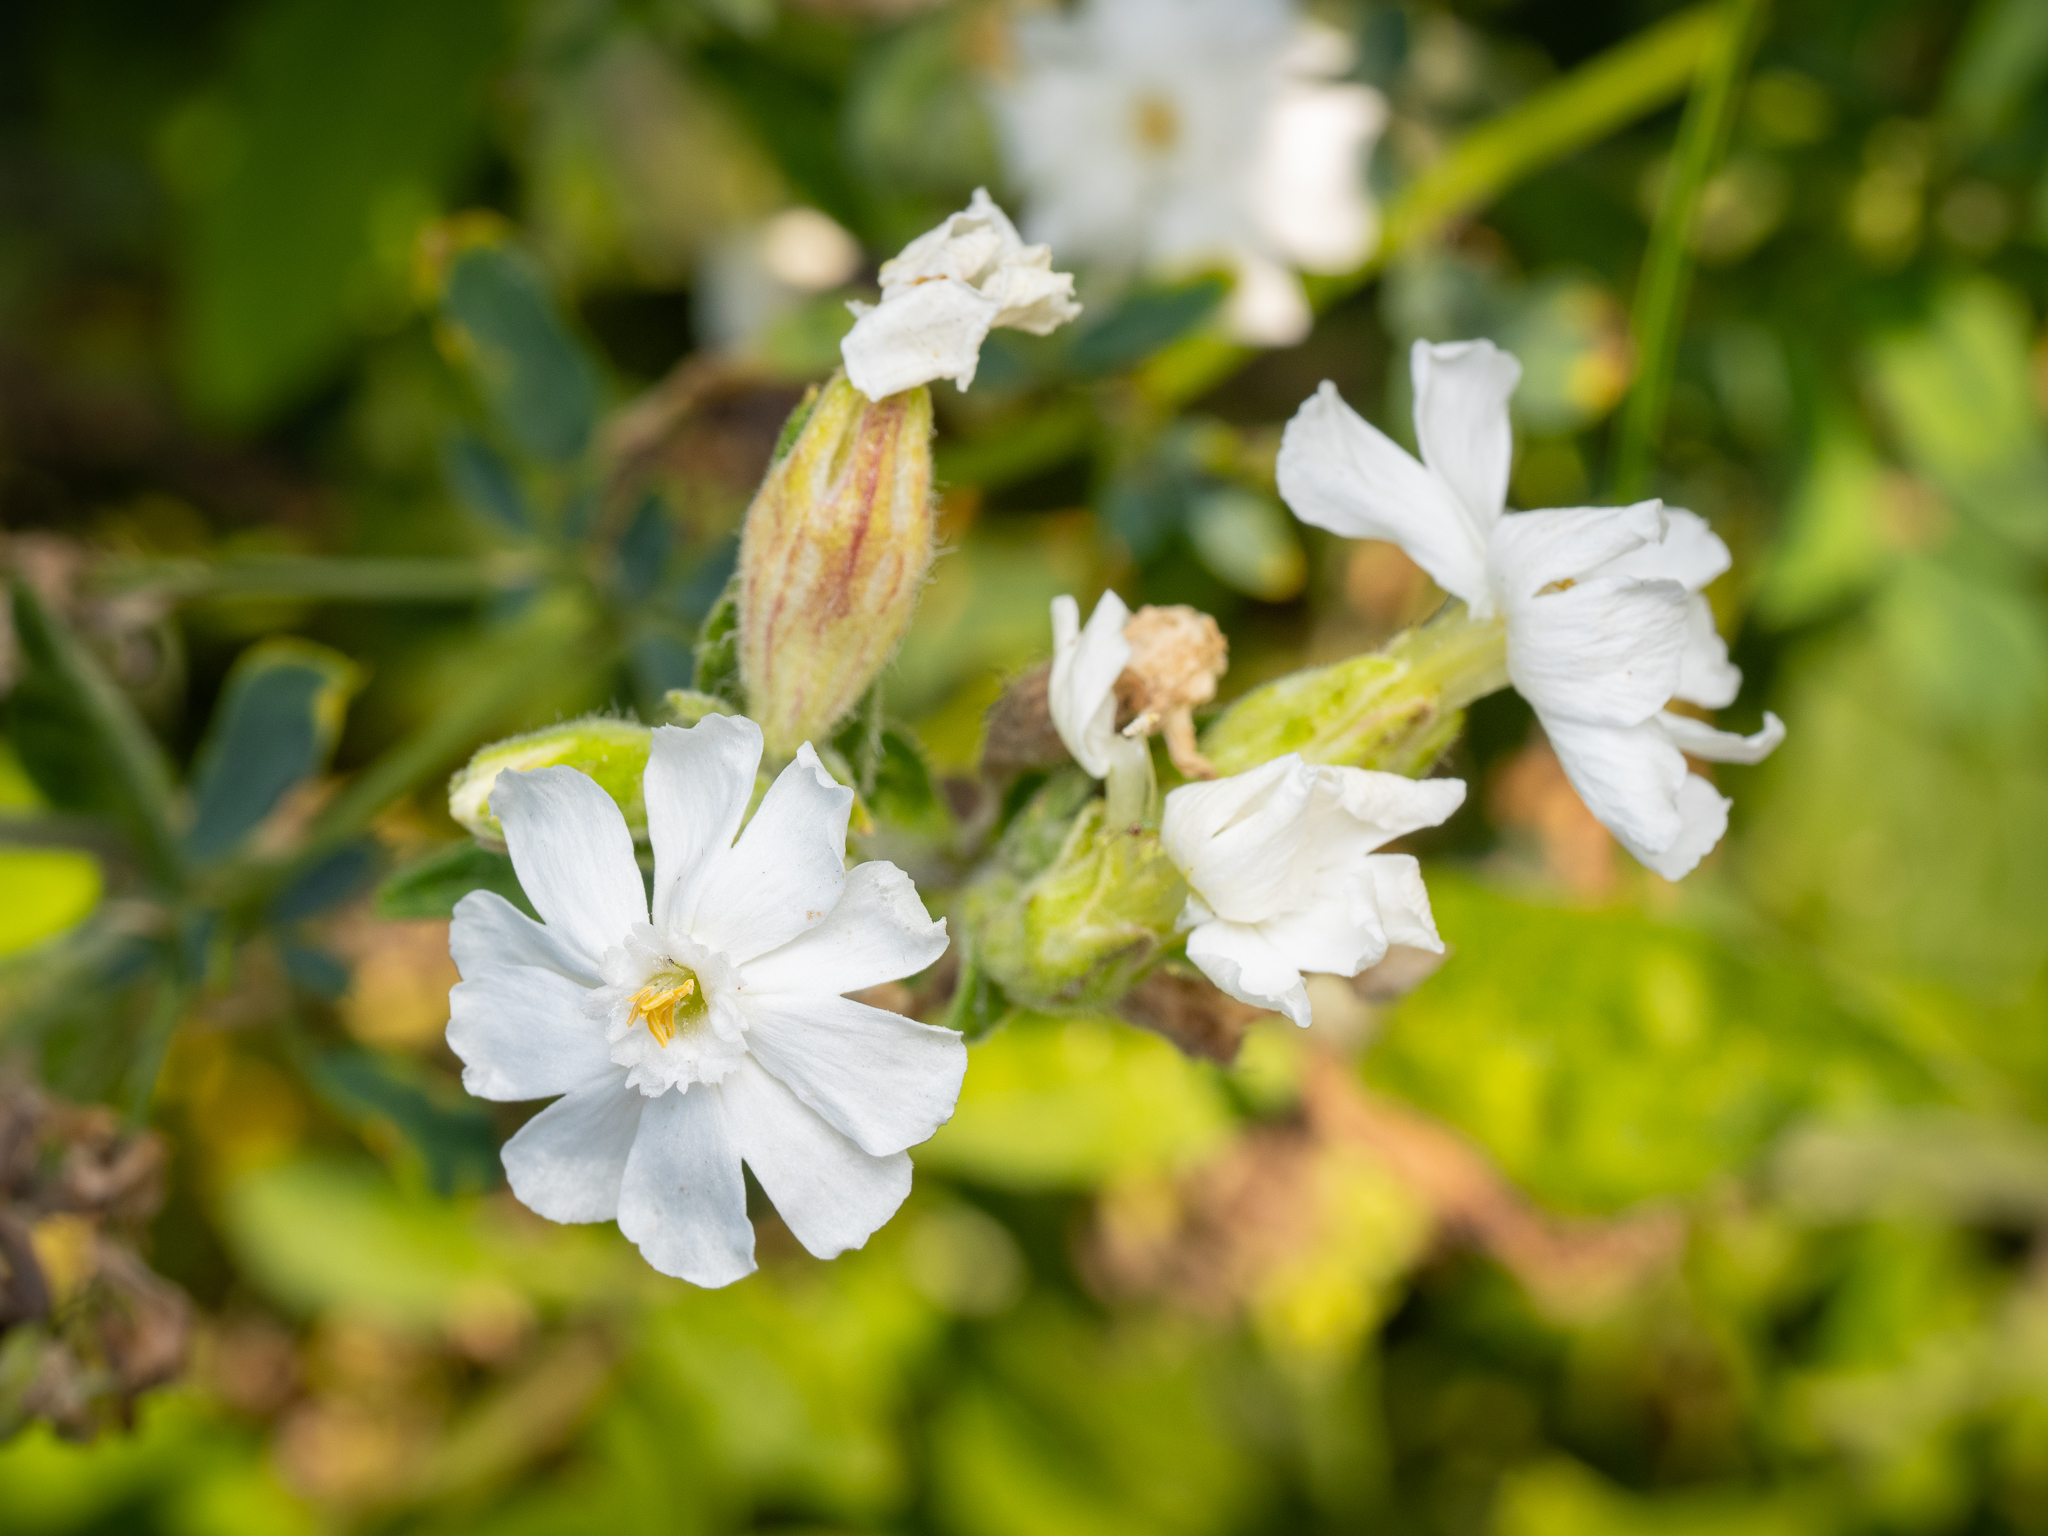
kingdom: Plantae
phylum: Tracheophyta
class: Magnoliopsida
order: Caryophyllales
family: Caryophyllaceae
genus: Silene
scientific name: Silene latifolia
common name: White campion
